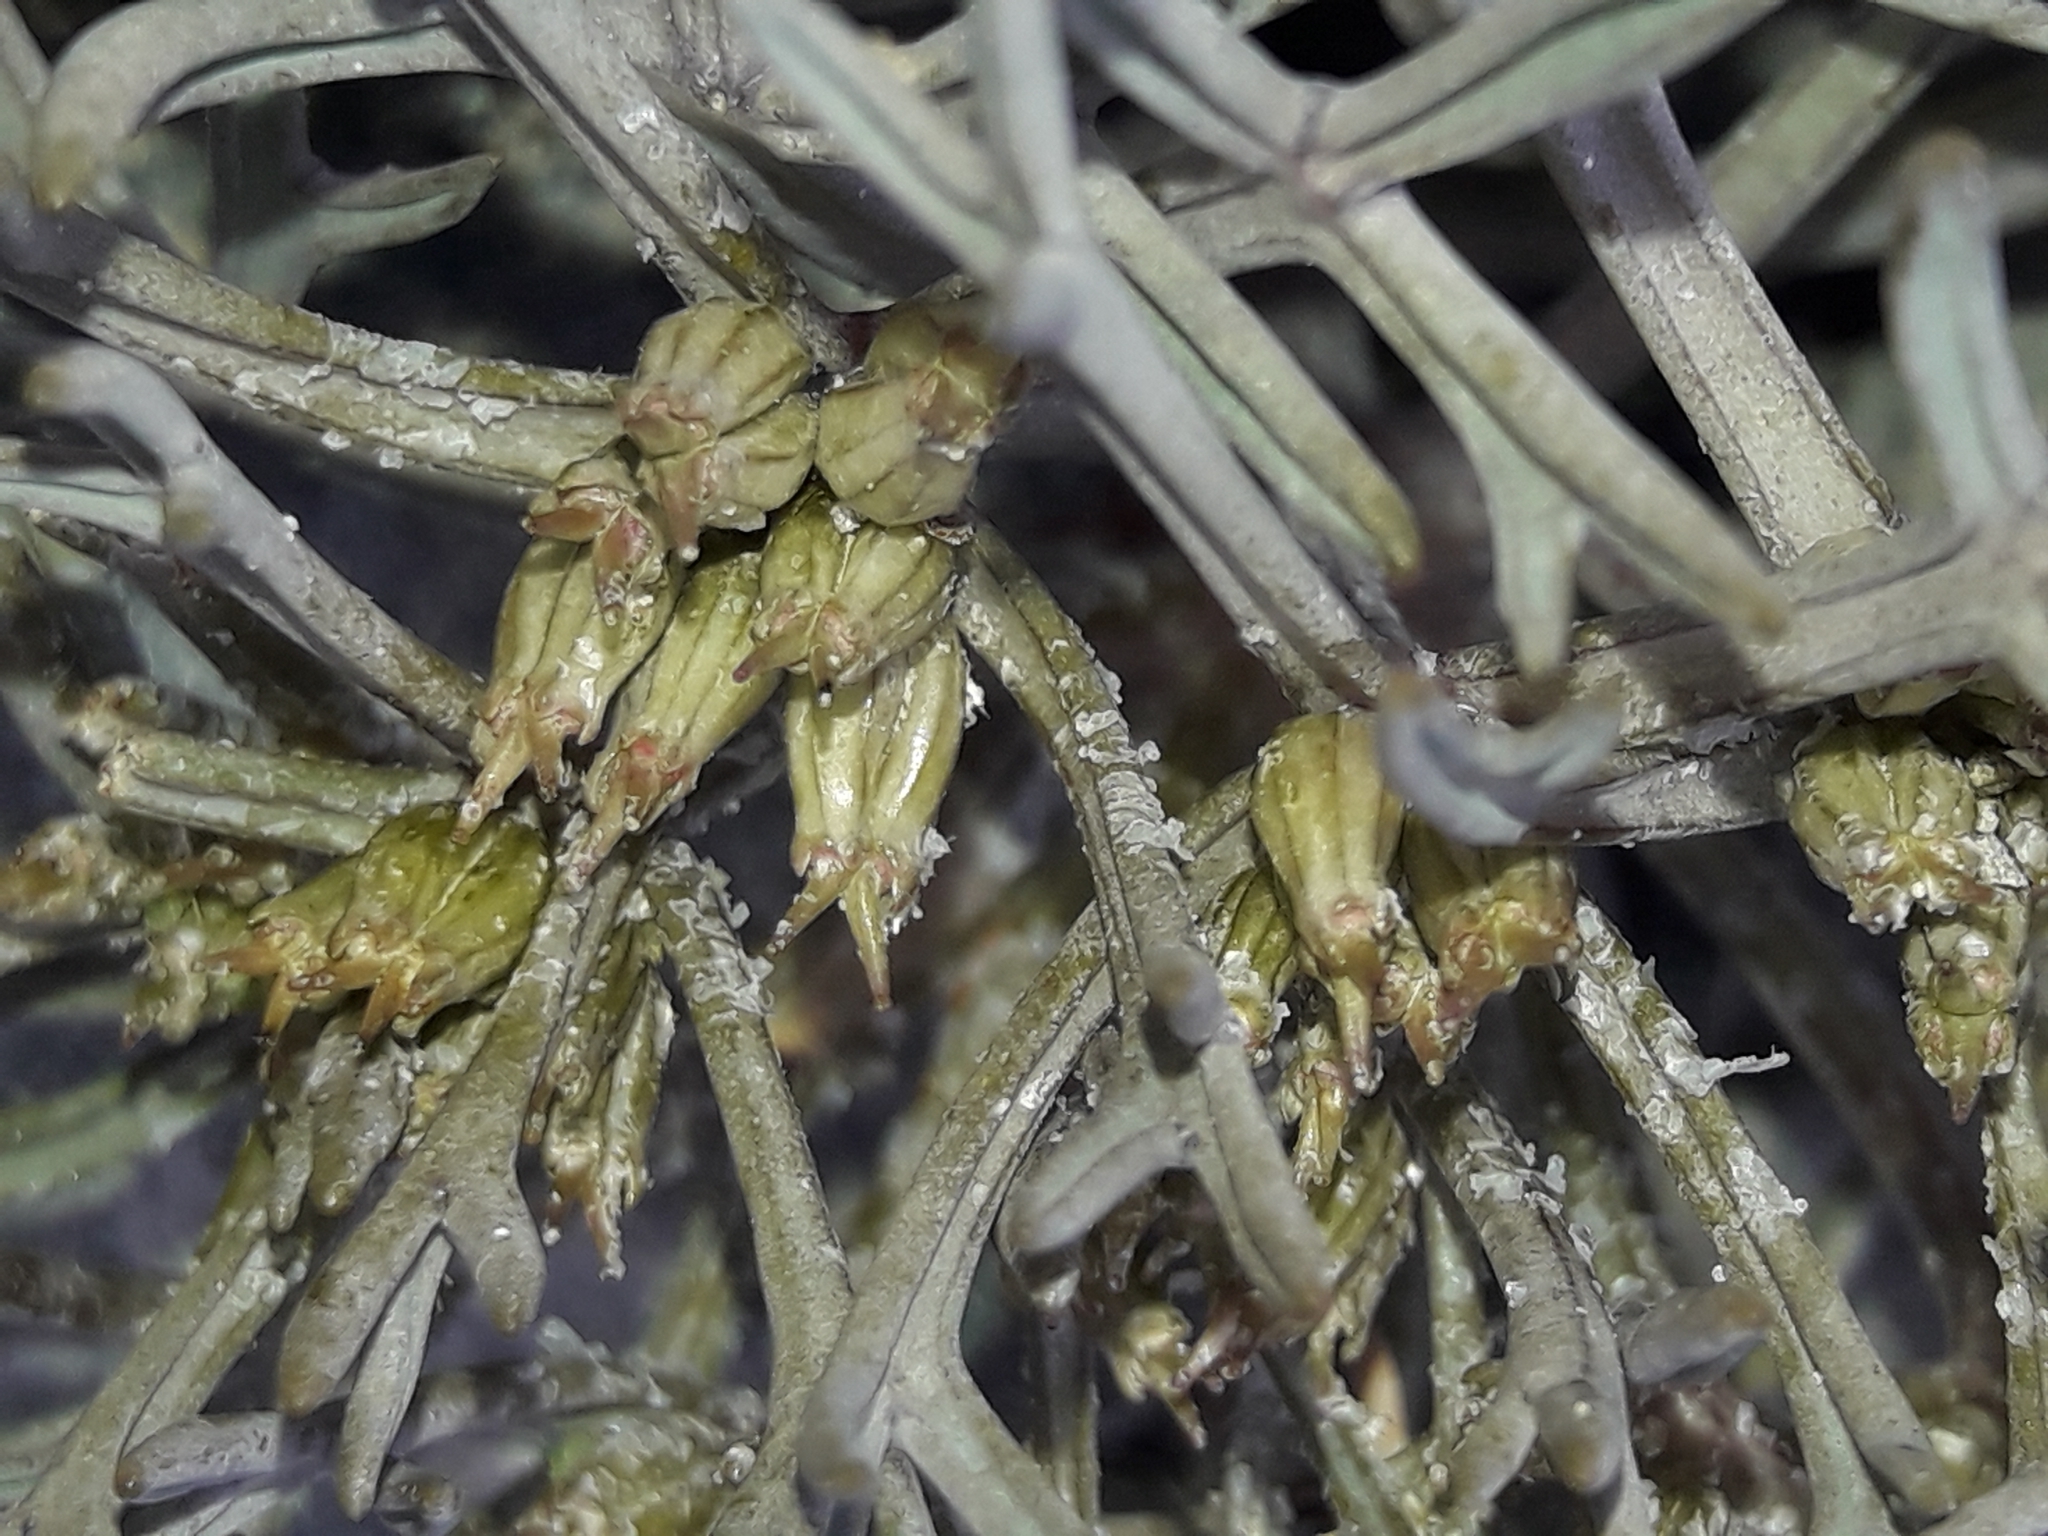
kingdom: Plantae
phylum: Tracheophyta
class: Magnoliopsida
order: Apiales
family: Apiaceae
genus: Lignocarpa
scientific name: Lignocarpa carnosula
